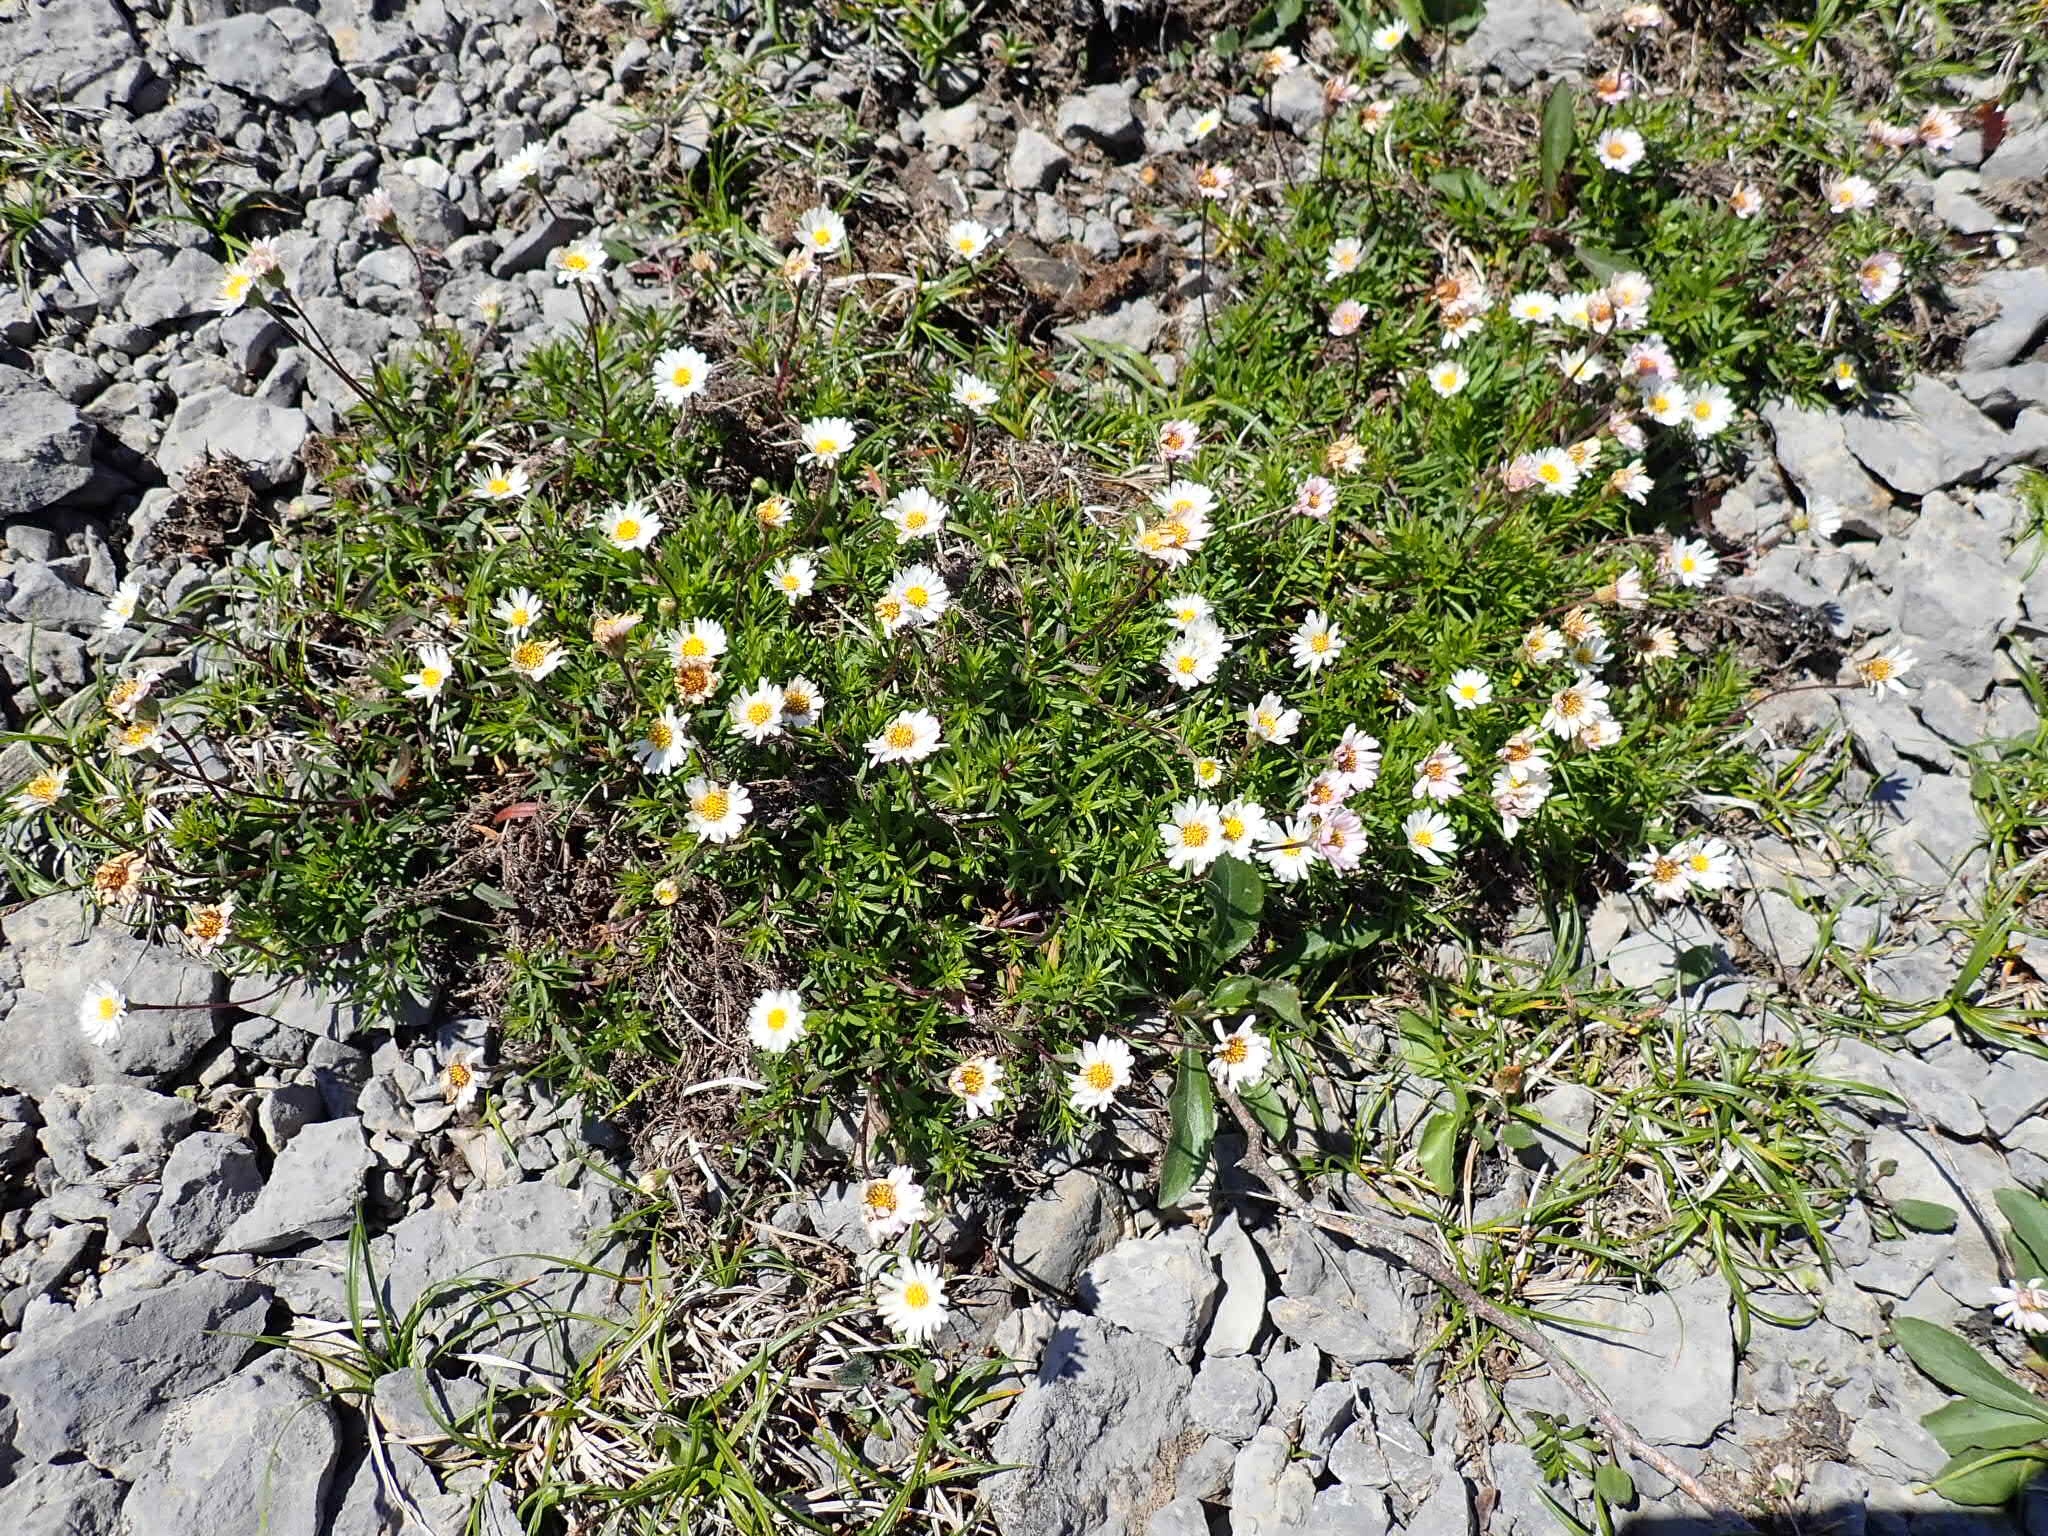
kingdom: Plantae
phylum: Tracheophyta
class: Magnoliopsida
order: Asterales
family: Asteraceae
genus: Erigeron
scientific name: Erigeron hyssopifolius
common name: Daisy fleabane
